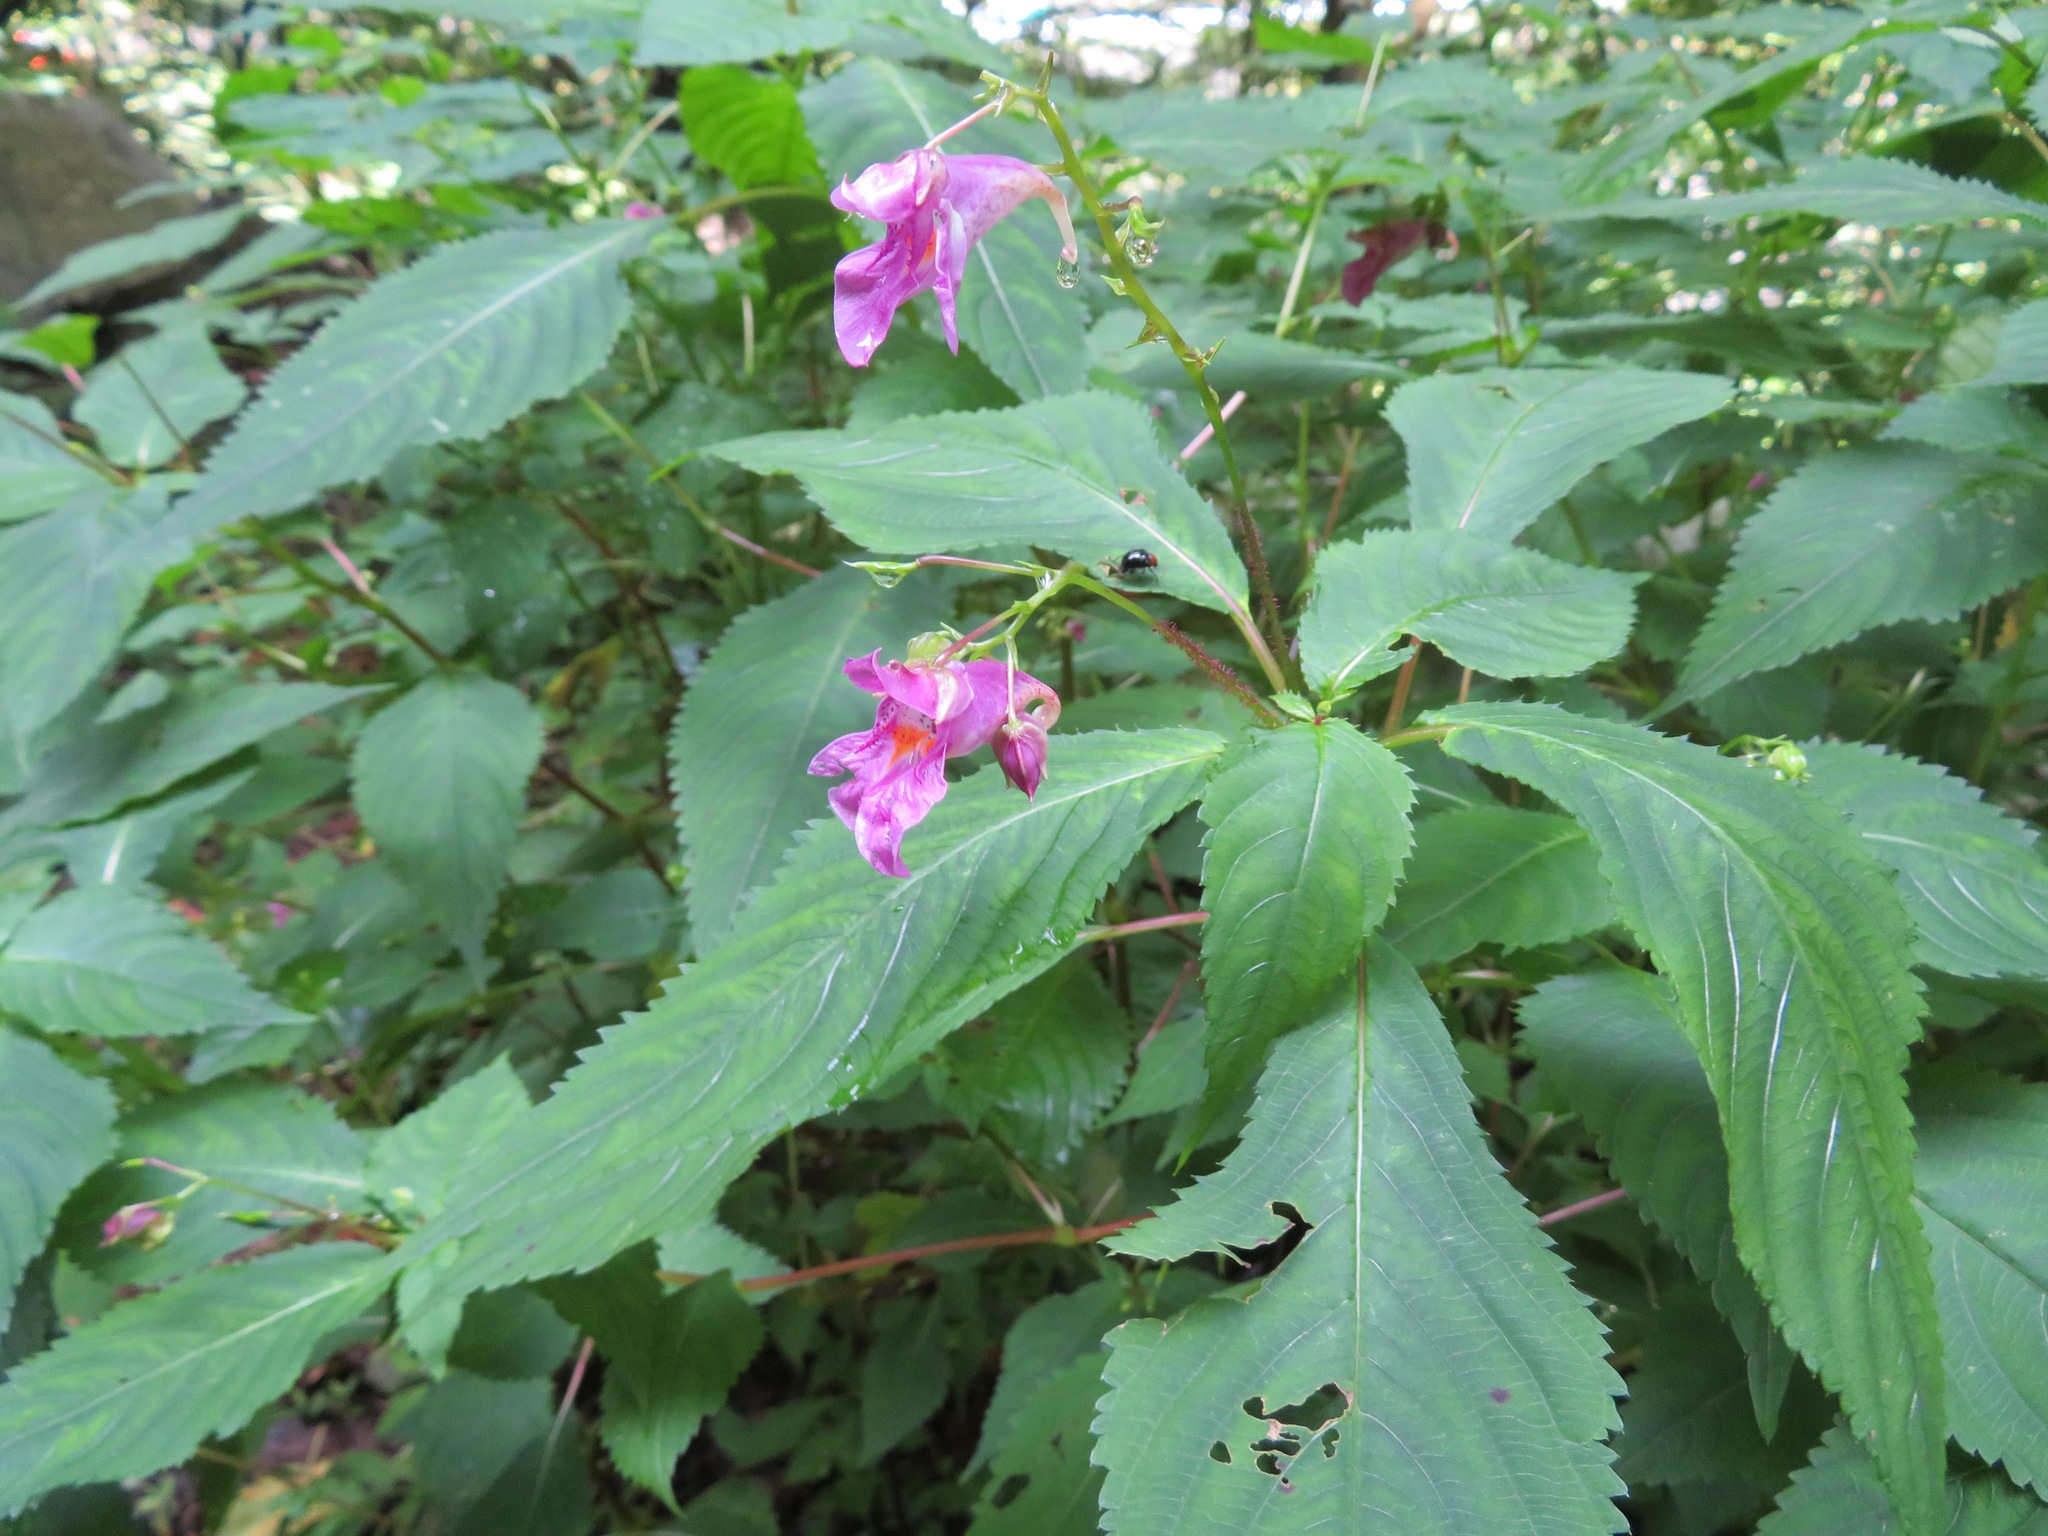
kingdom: Plantae
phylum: Tracheophyta
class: Magnoliopsida
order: Ericales
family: Balsaminaceae
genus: Impatiens
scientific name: Impatiens textorii
